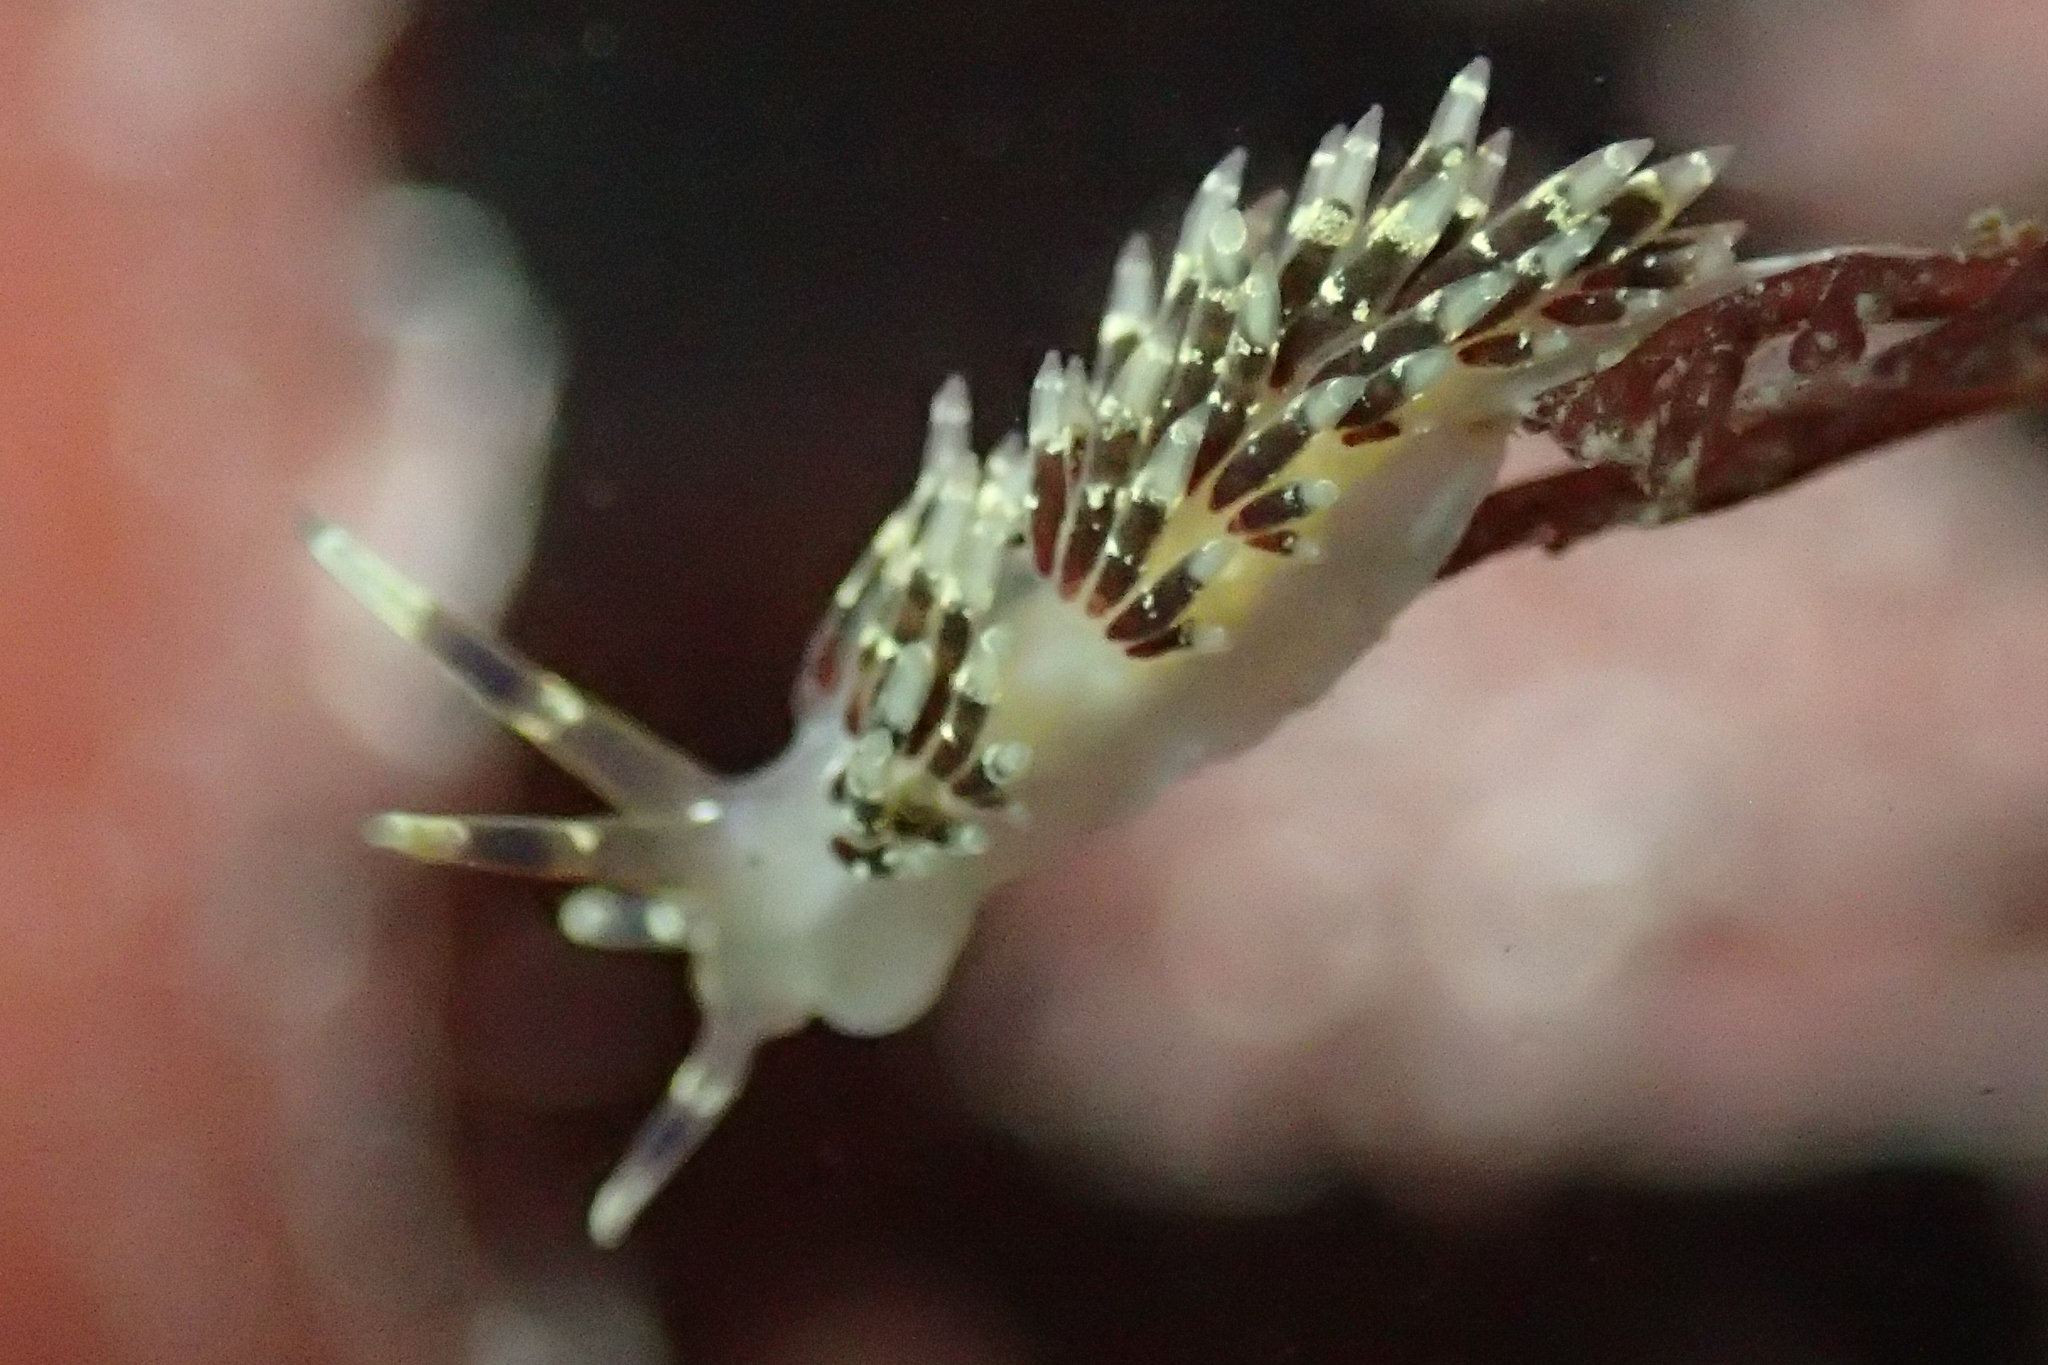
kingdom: Animalia
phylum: Mollusca
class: Gastropoda
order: Nudibranchia
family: Abronicidae
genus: Abronica
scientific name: Abronica abronia
